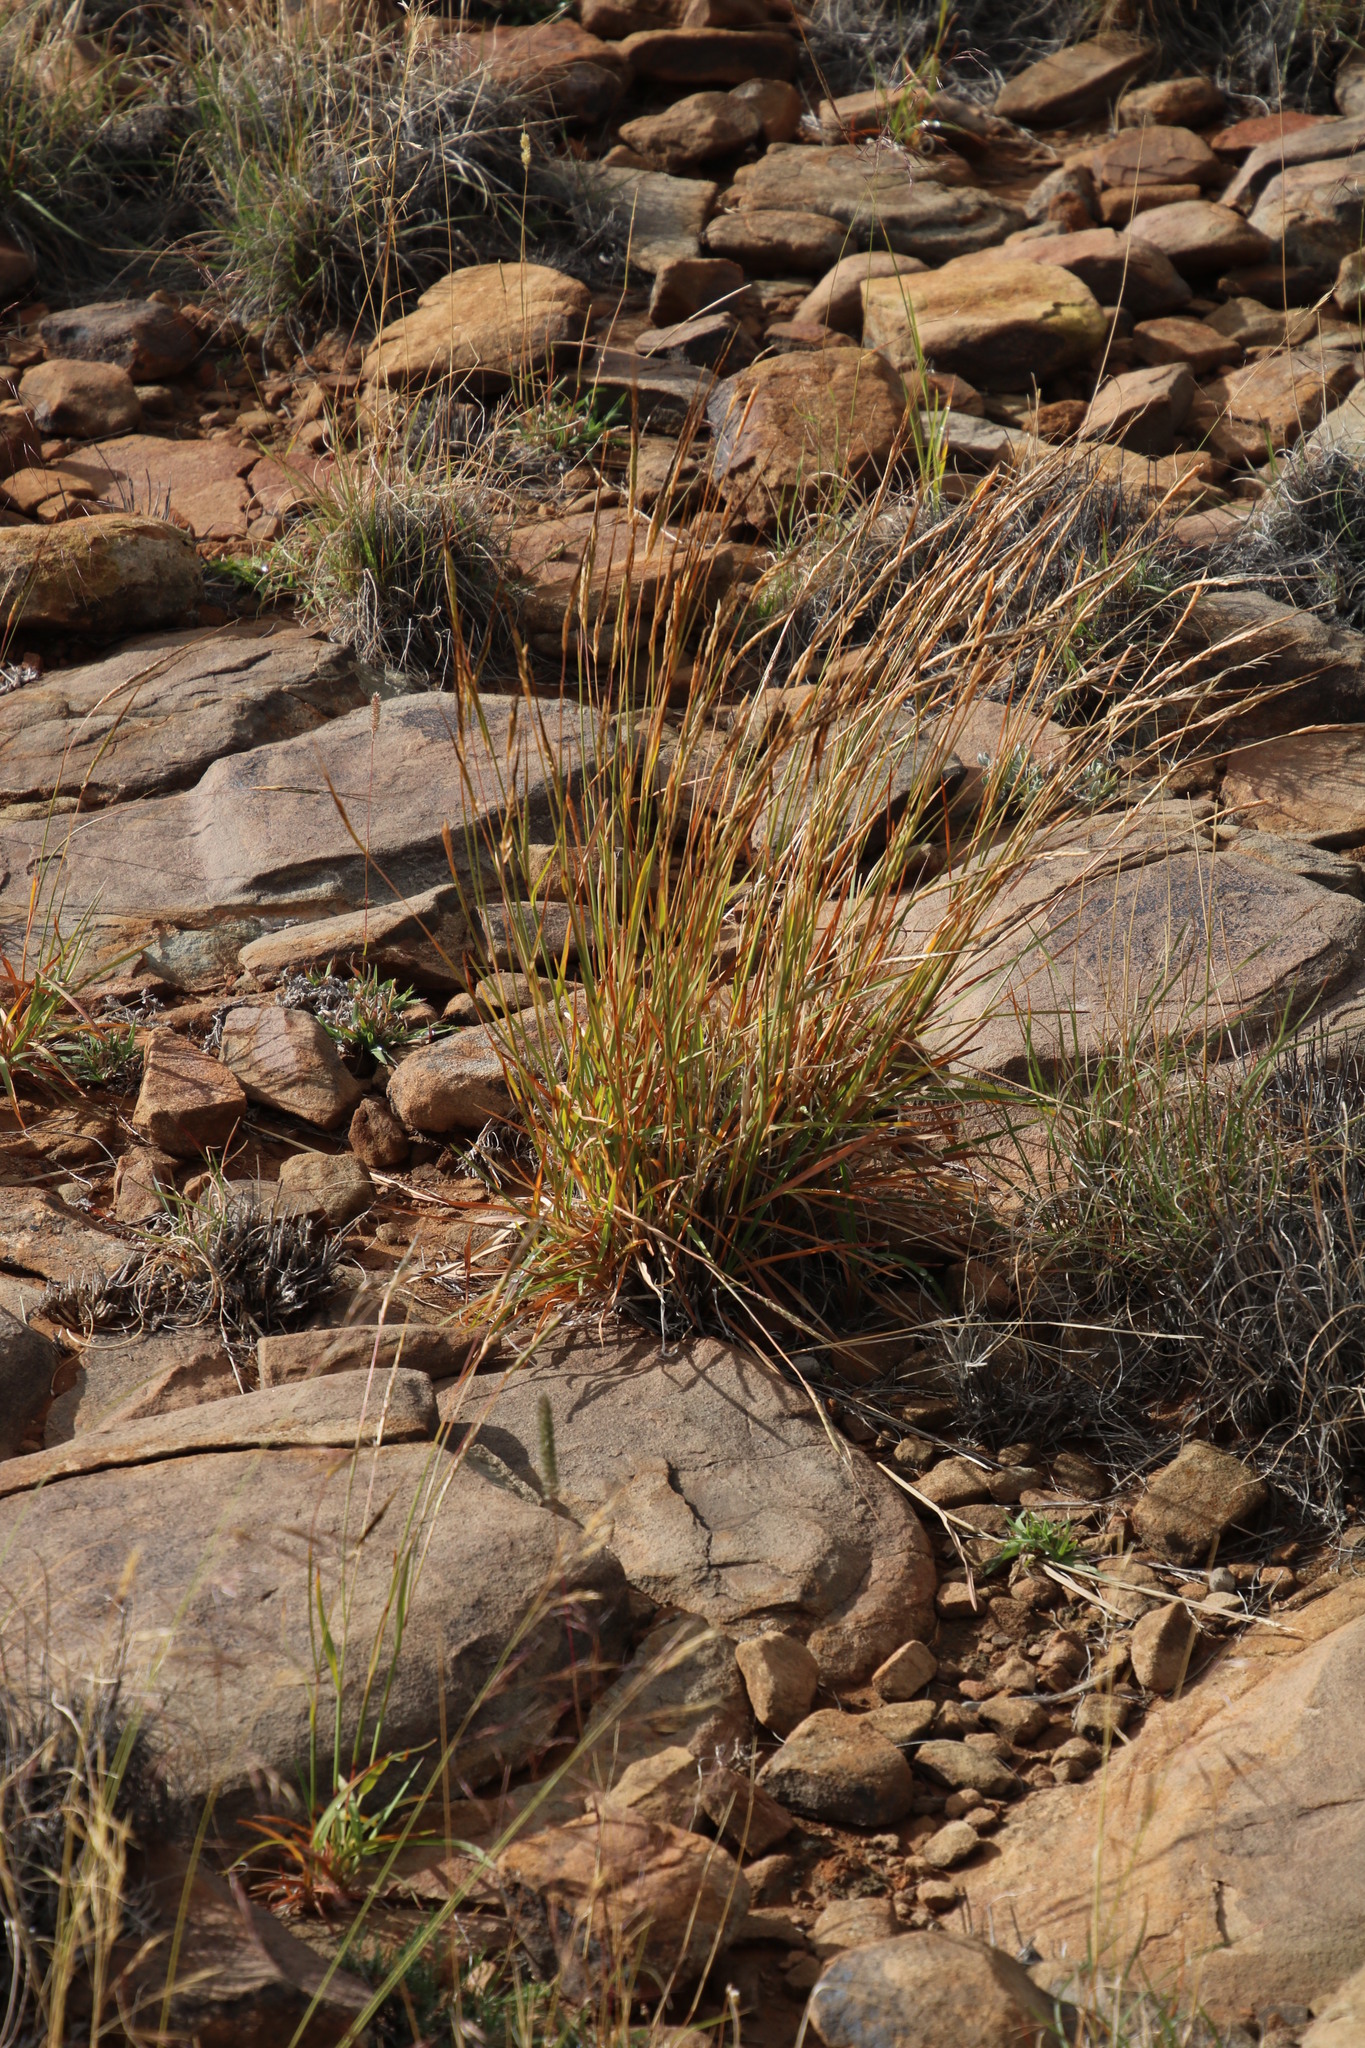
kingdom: Plantae
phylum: Tracheophyta
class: Liliopsida
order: Poales
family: Poaceae
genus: Heteropogon
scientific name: Heteropogon contortus
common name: Tanglehead
